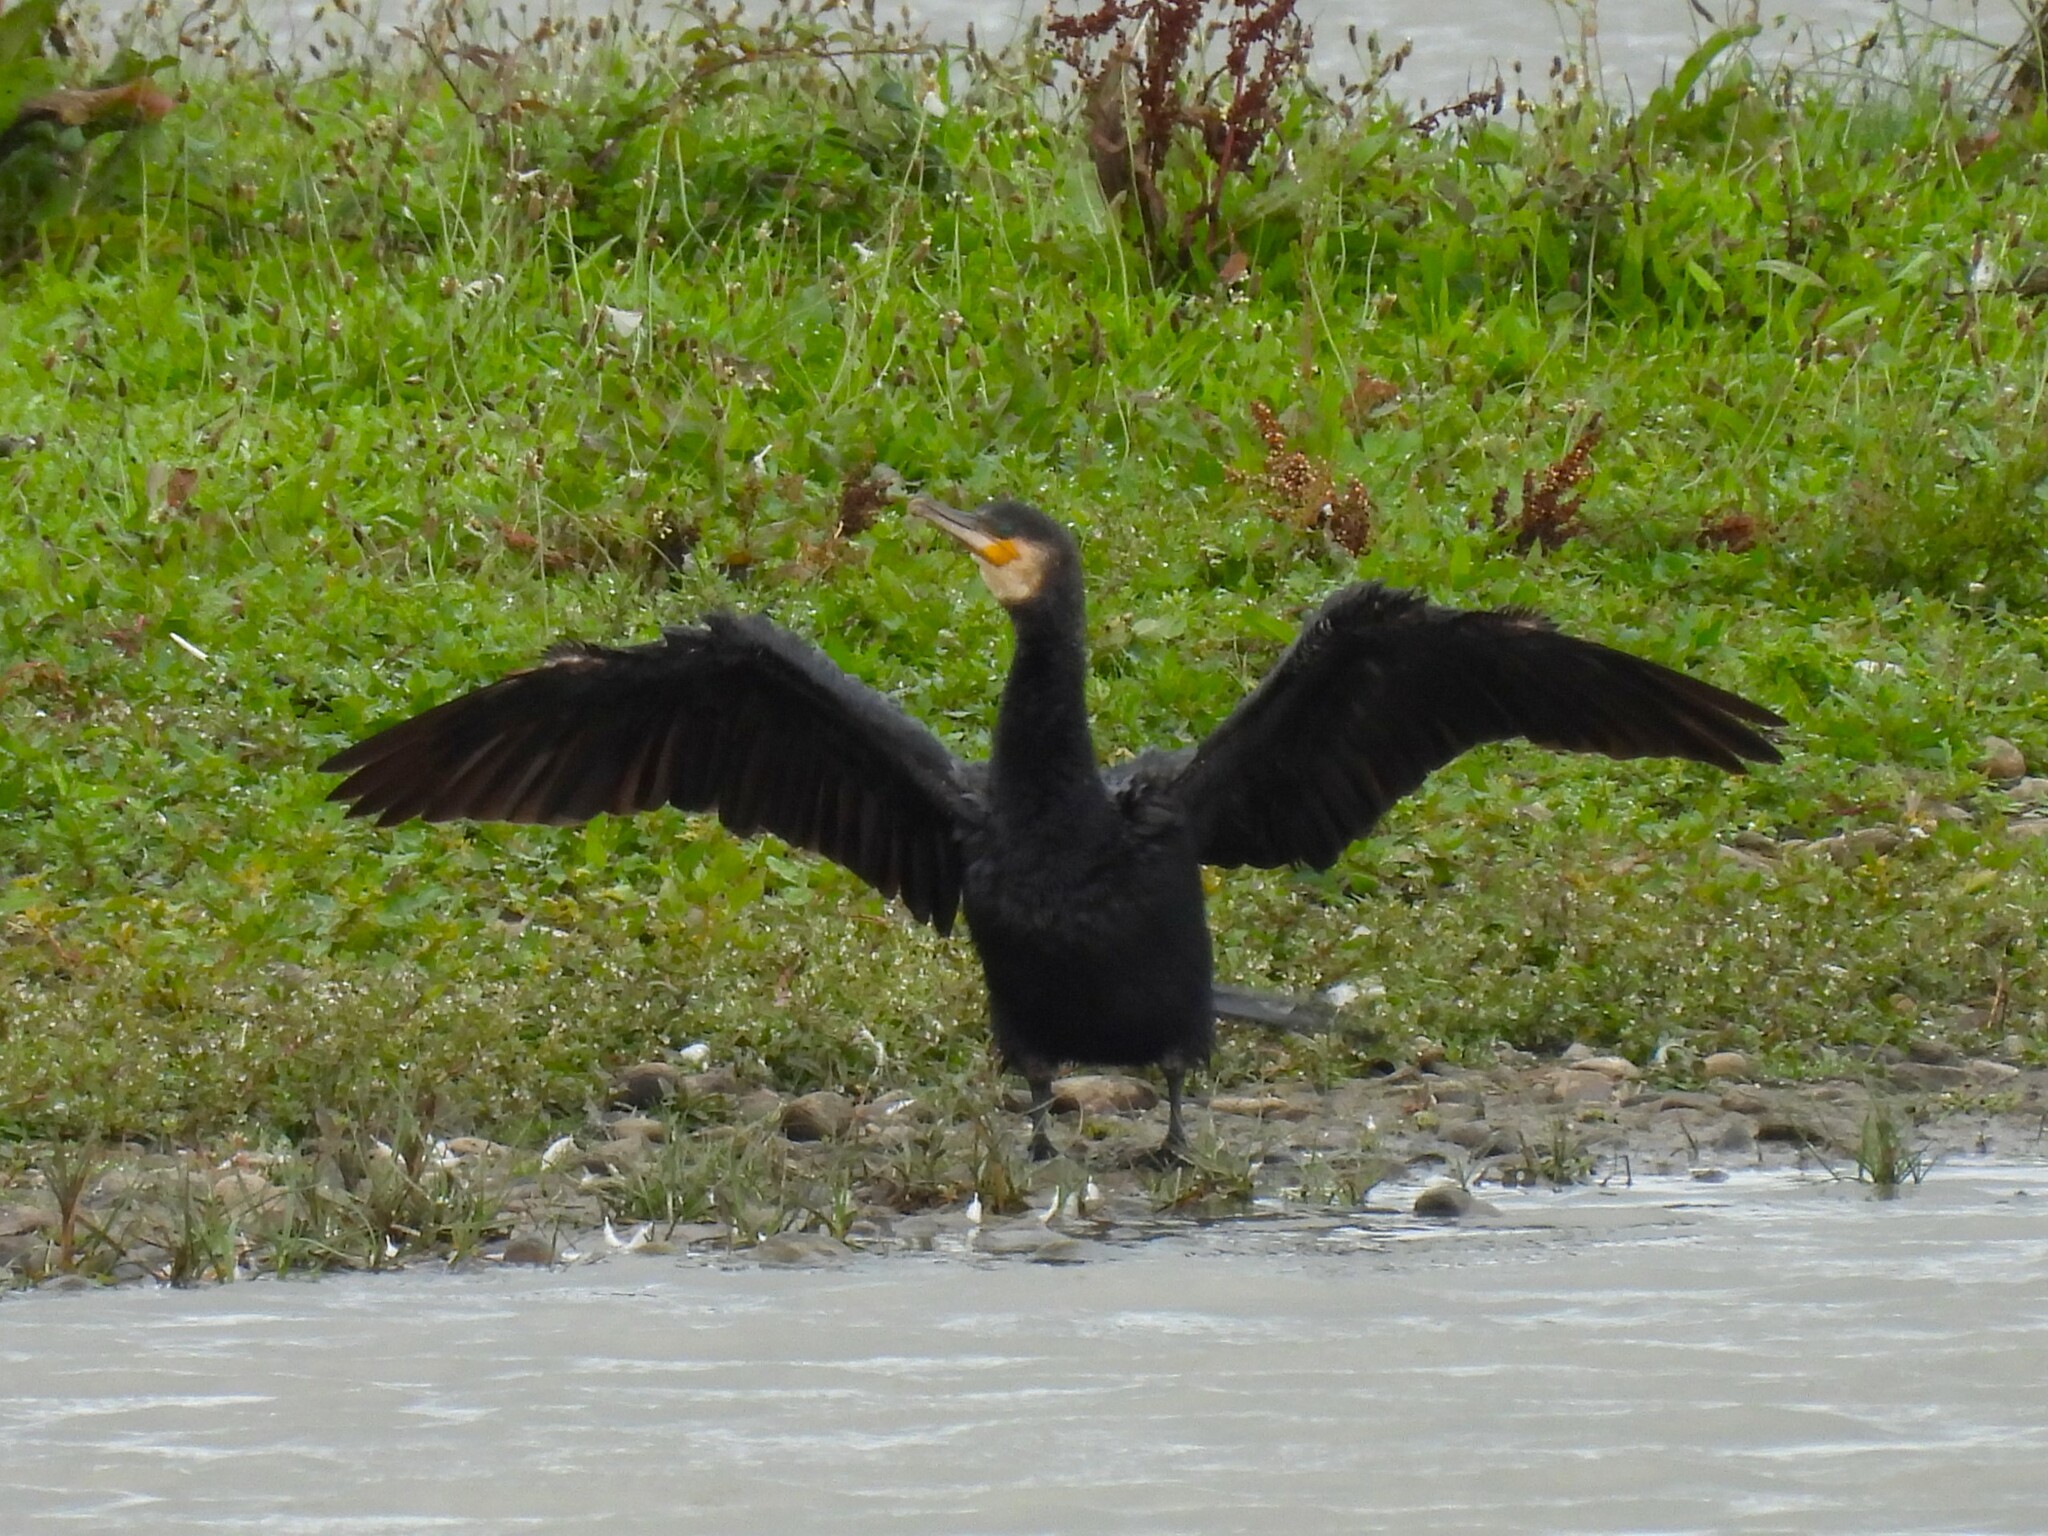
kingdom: Animalia
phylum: Chordata
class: Aves
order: Suliformes
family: Phalacrocoracidae
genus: Phalacrocorax
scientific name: Phalacrocorax carbo
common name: Great cormorant
